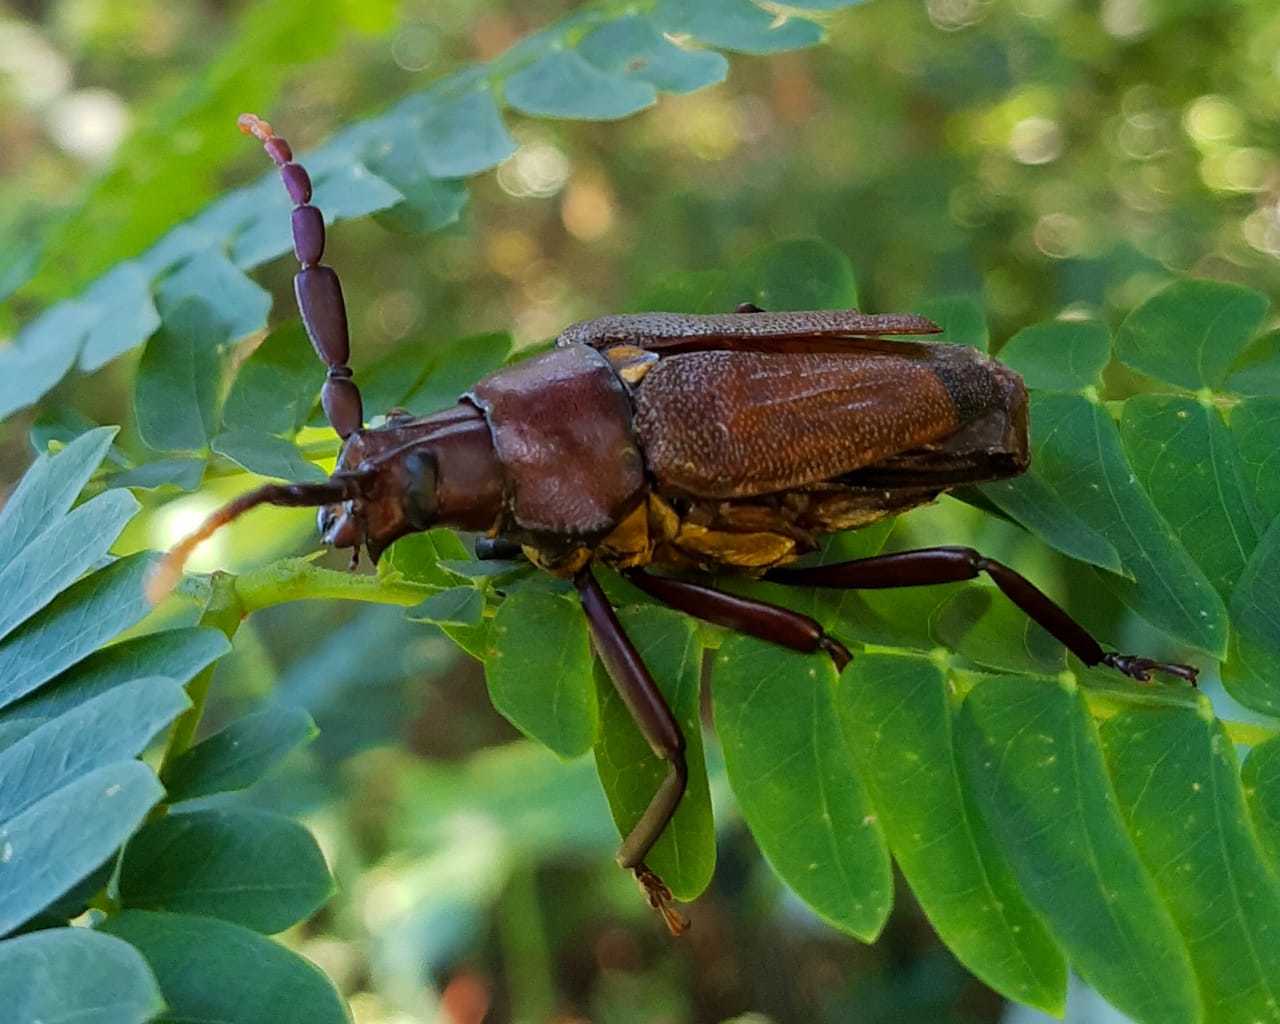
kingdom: Animalia
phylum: Arthropoda
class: Insecta
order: Coleoptera
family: Cerambycidae
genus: Praemallaspis
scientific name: Praemallaspis leucaspis
